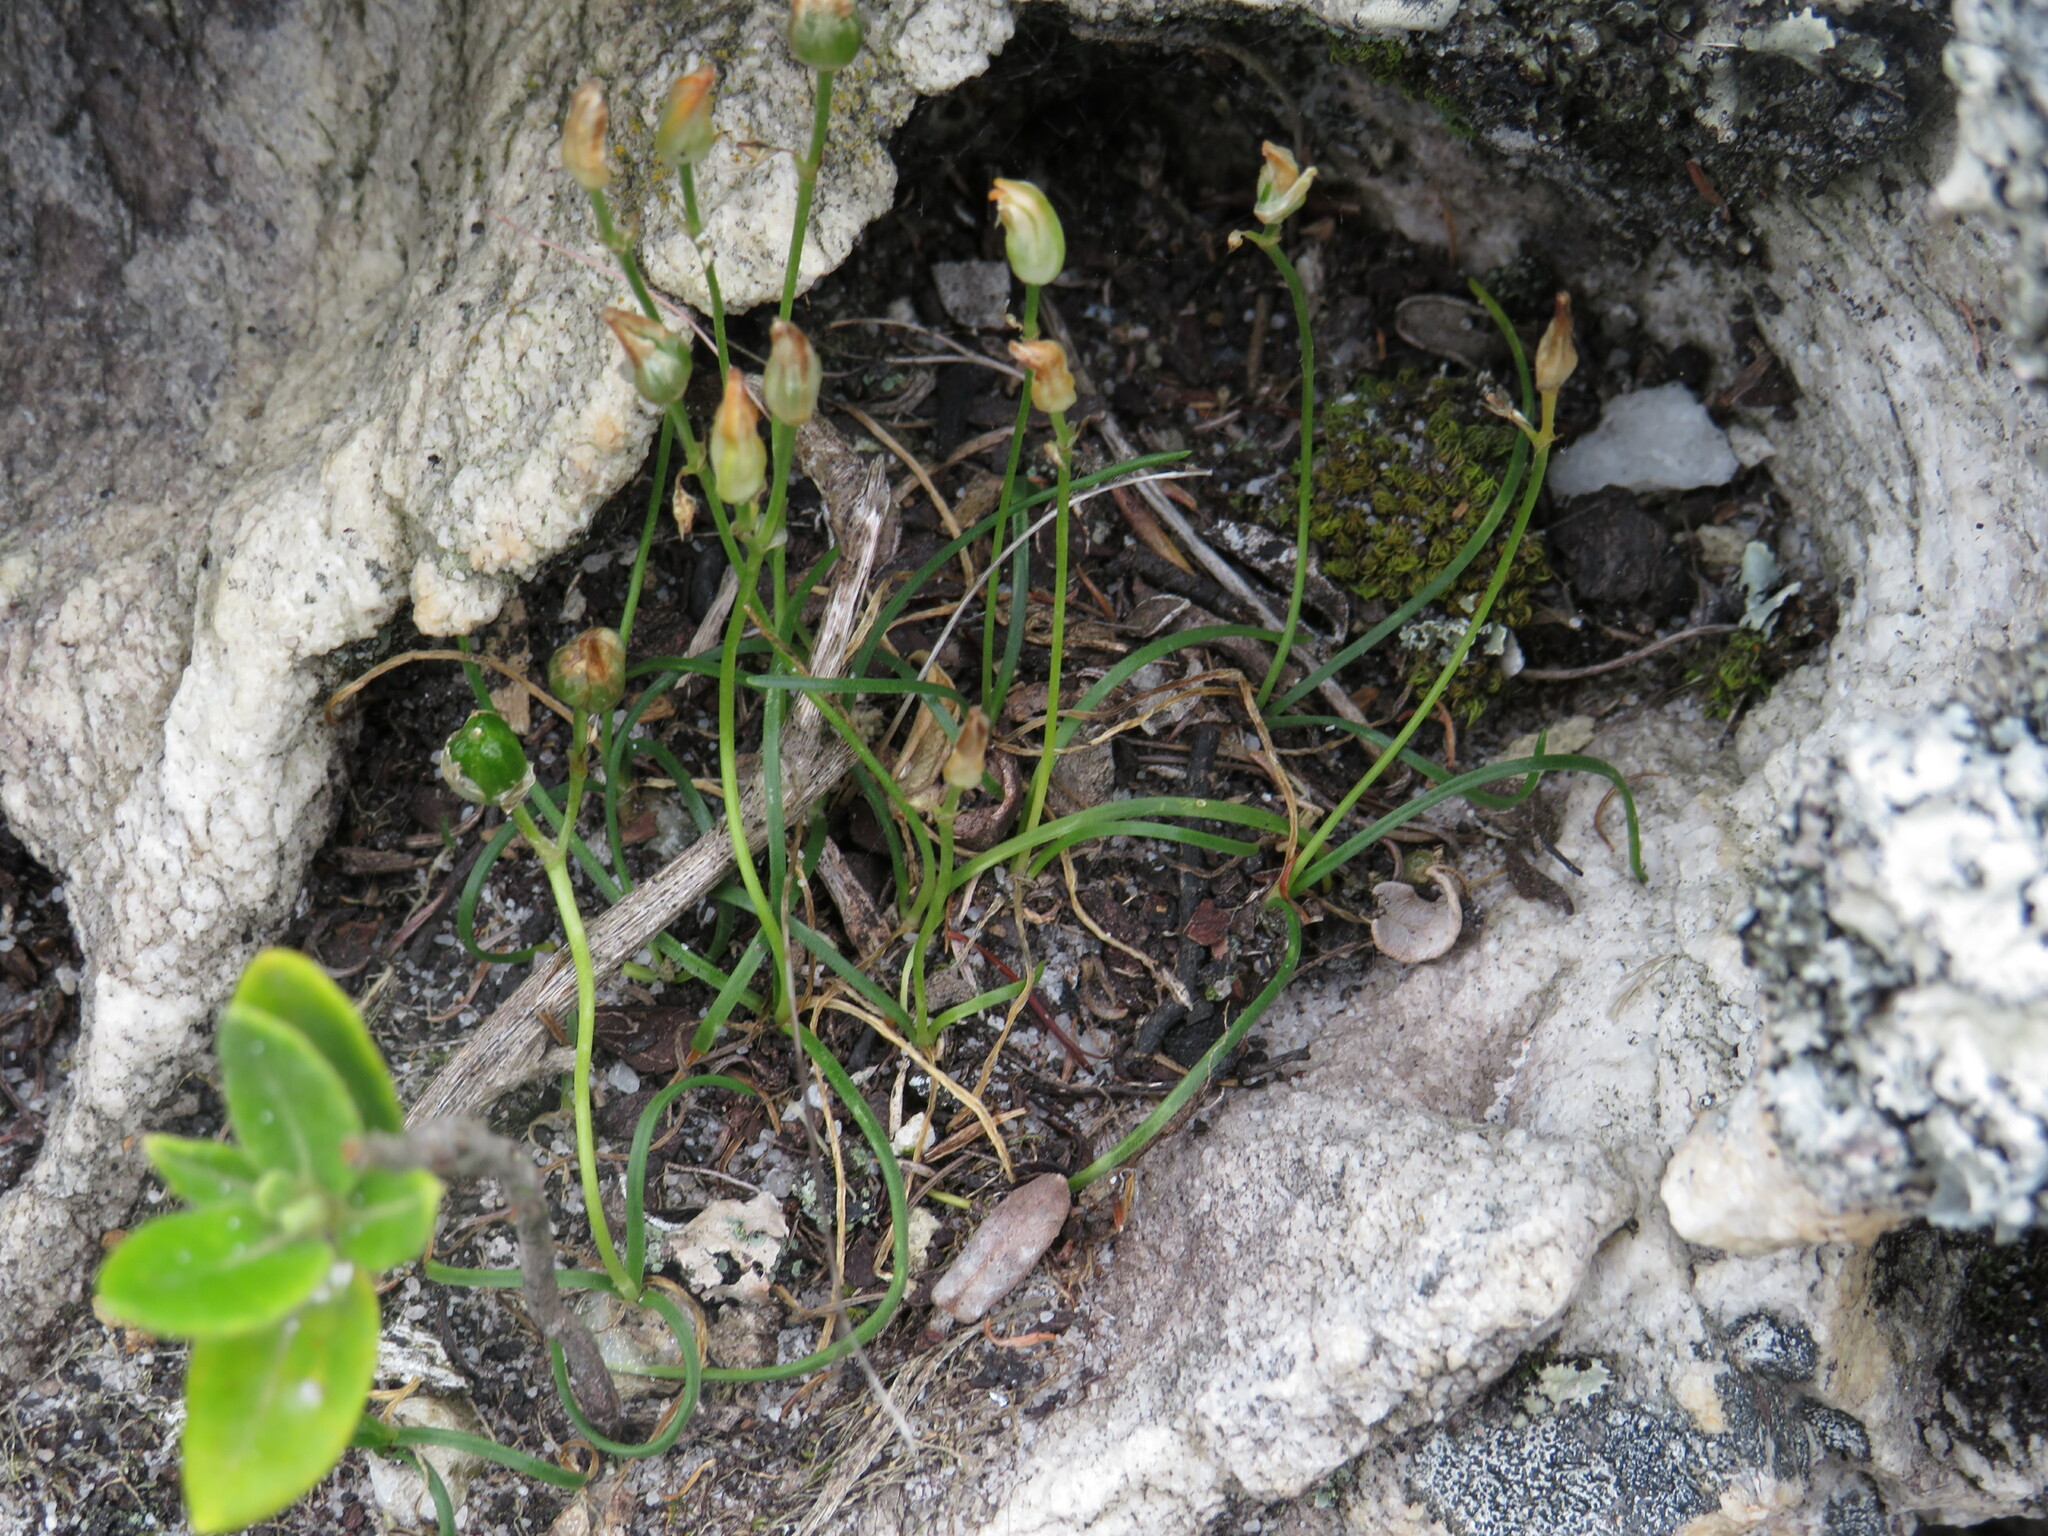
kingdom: Plantae
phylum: Tracheophyta
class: Liliopsida
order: Asparagales
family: Asparagaceae
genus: Ornithogalum
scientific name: Ornithogalum niveum
